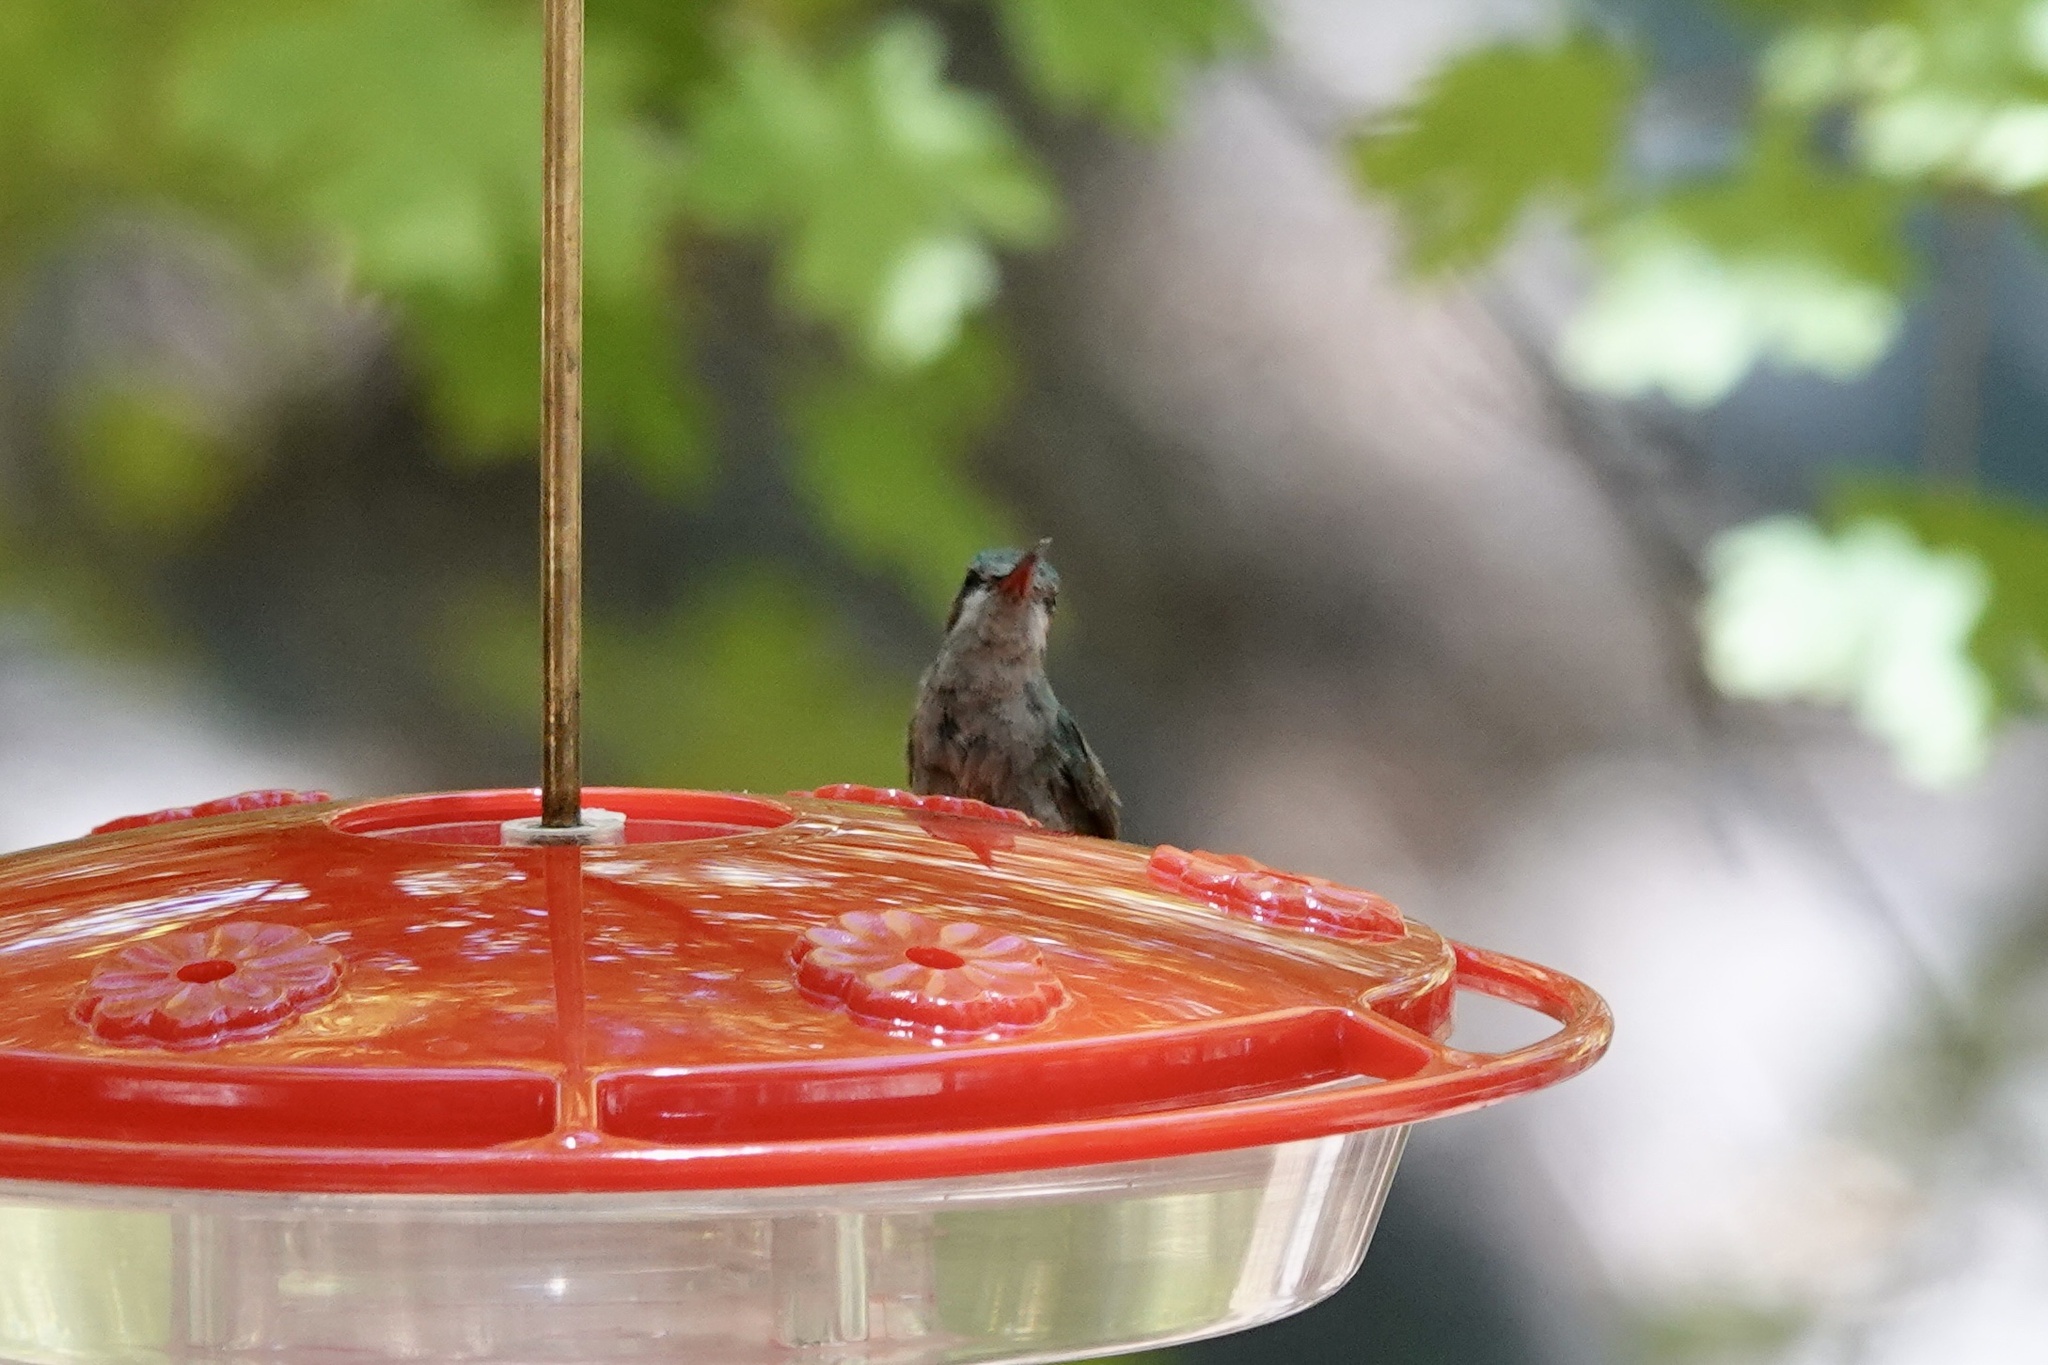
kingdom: Animalia
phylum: Chordata
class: Aves
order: Apodiformes
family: Trochilidae
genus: Cynanthus
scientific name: Cynanthus latirostris
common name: Broad-billed hummingbird
